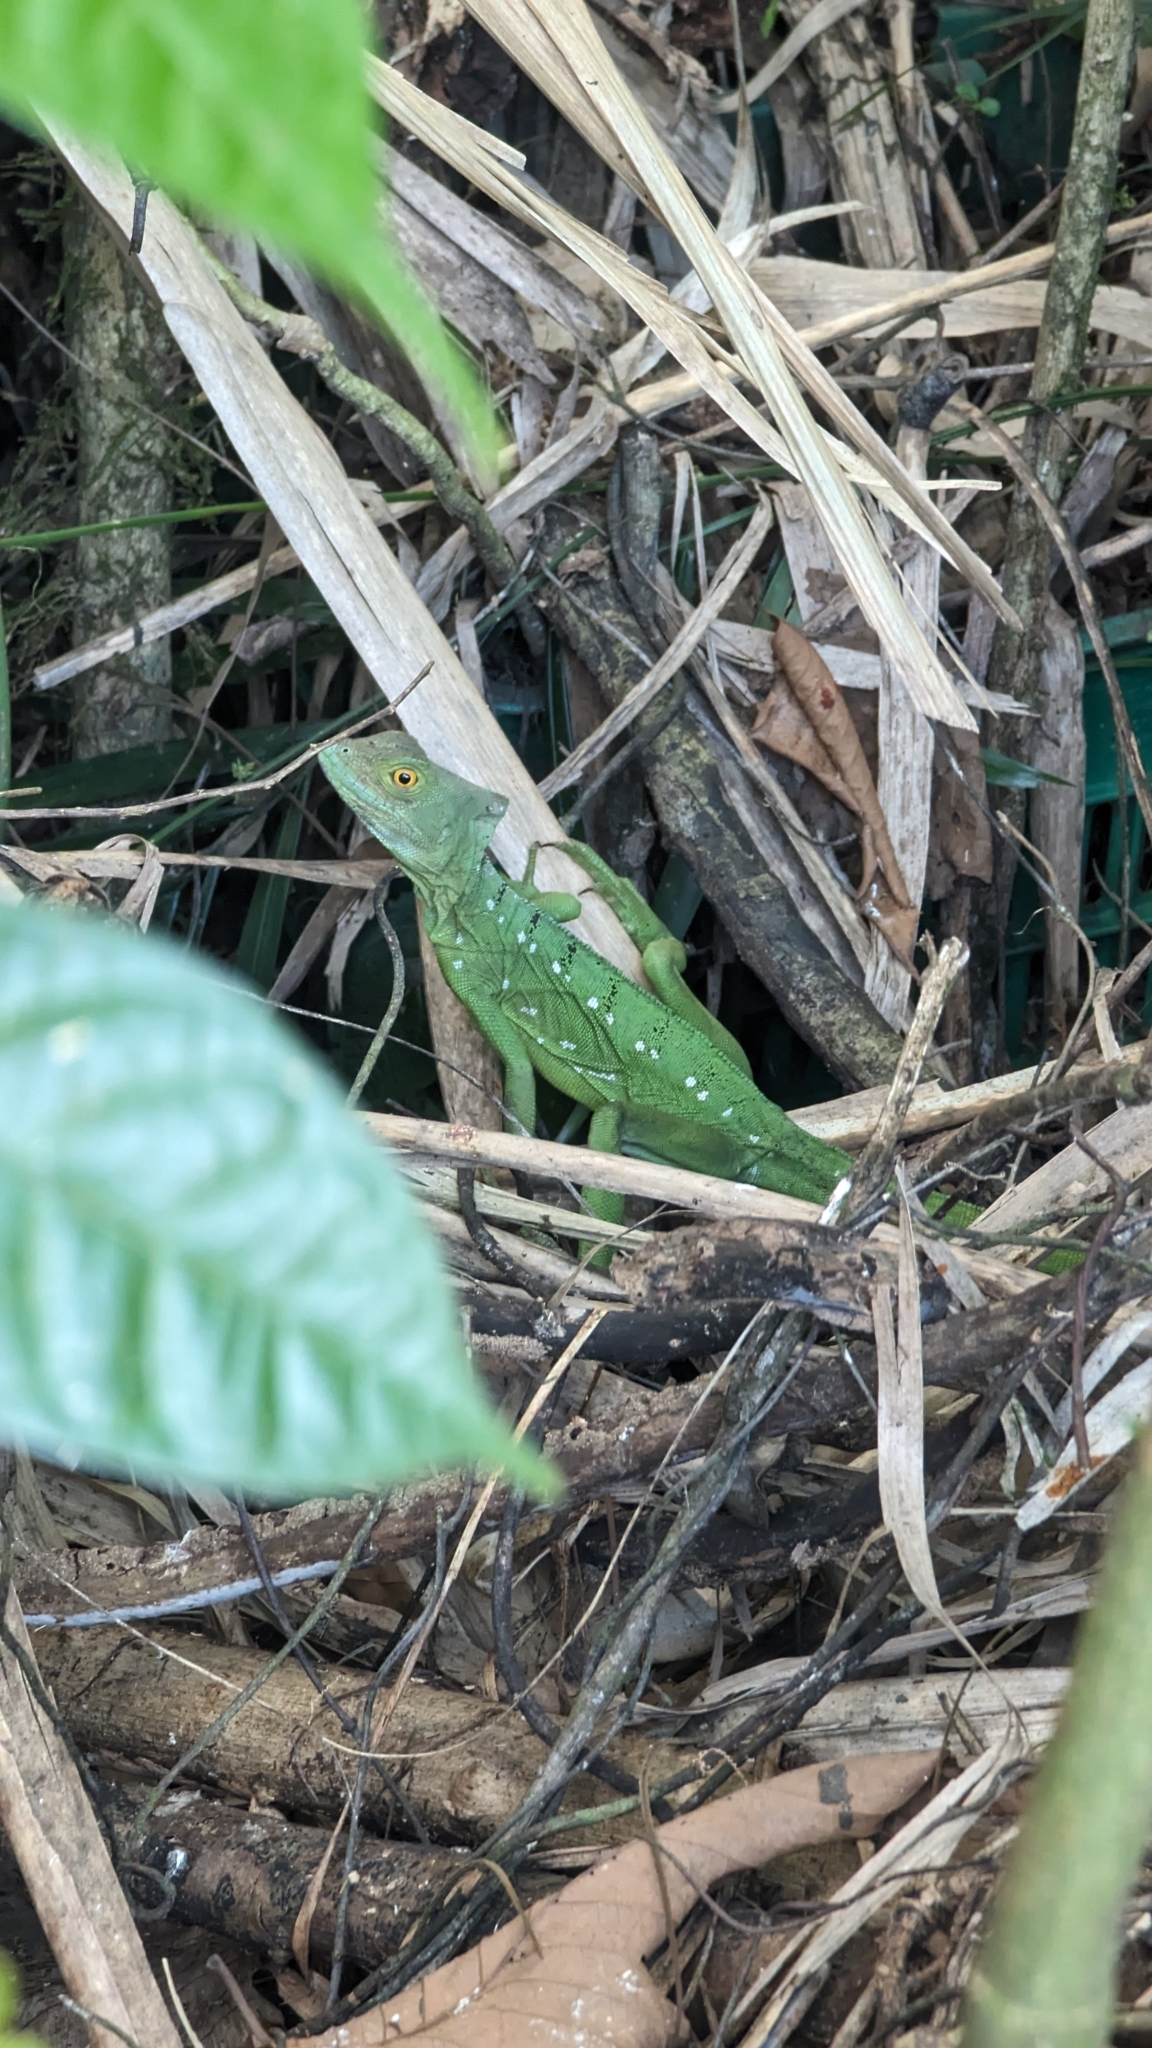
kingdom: Animalia
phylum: Chordata
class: Squamata
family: Corytophanidae
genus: Basiliscus
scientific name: Basiliscus plumifrons
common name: Green basilisk
